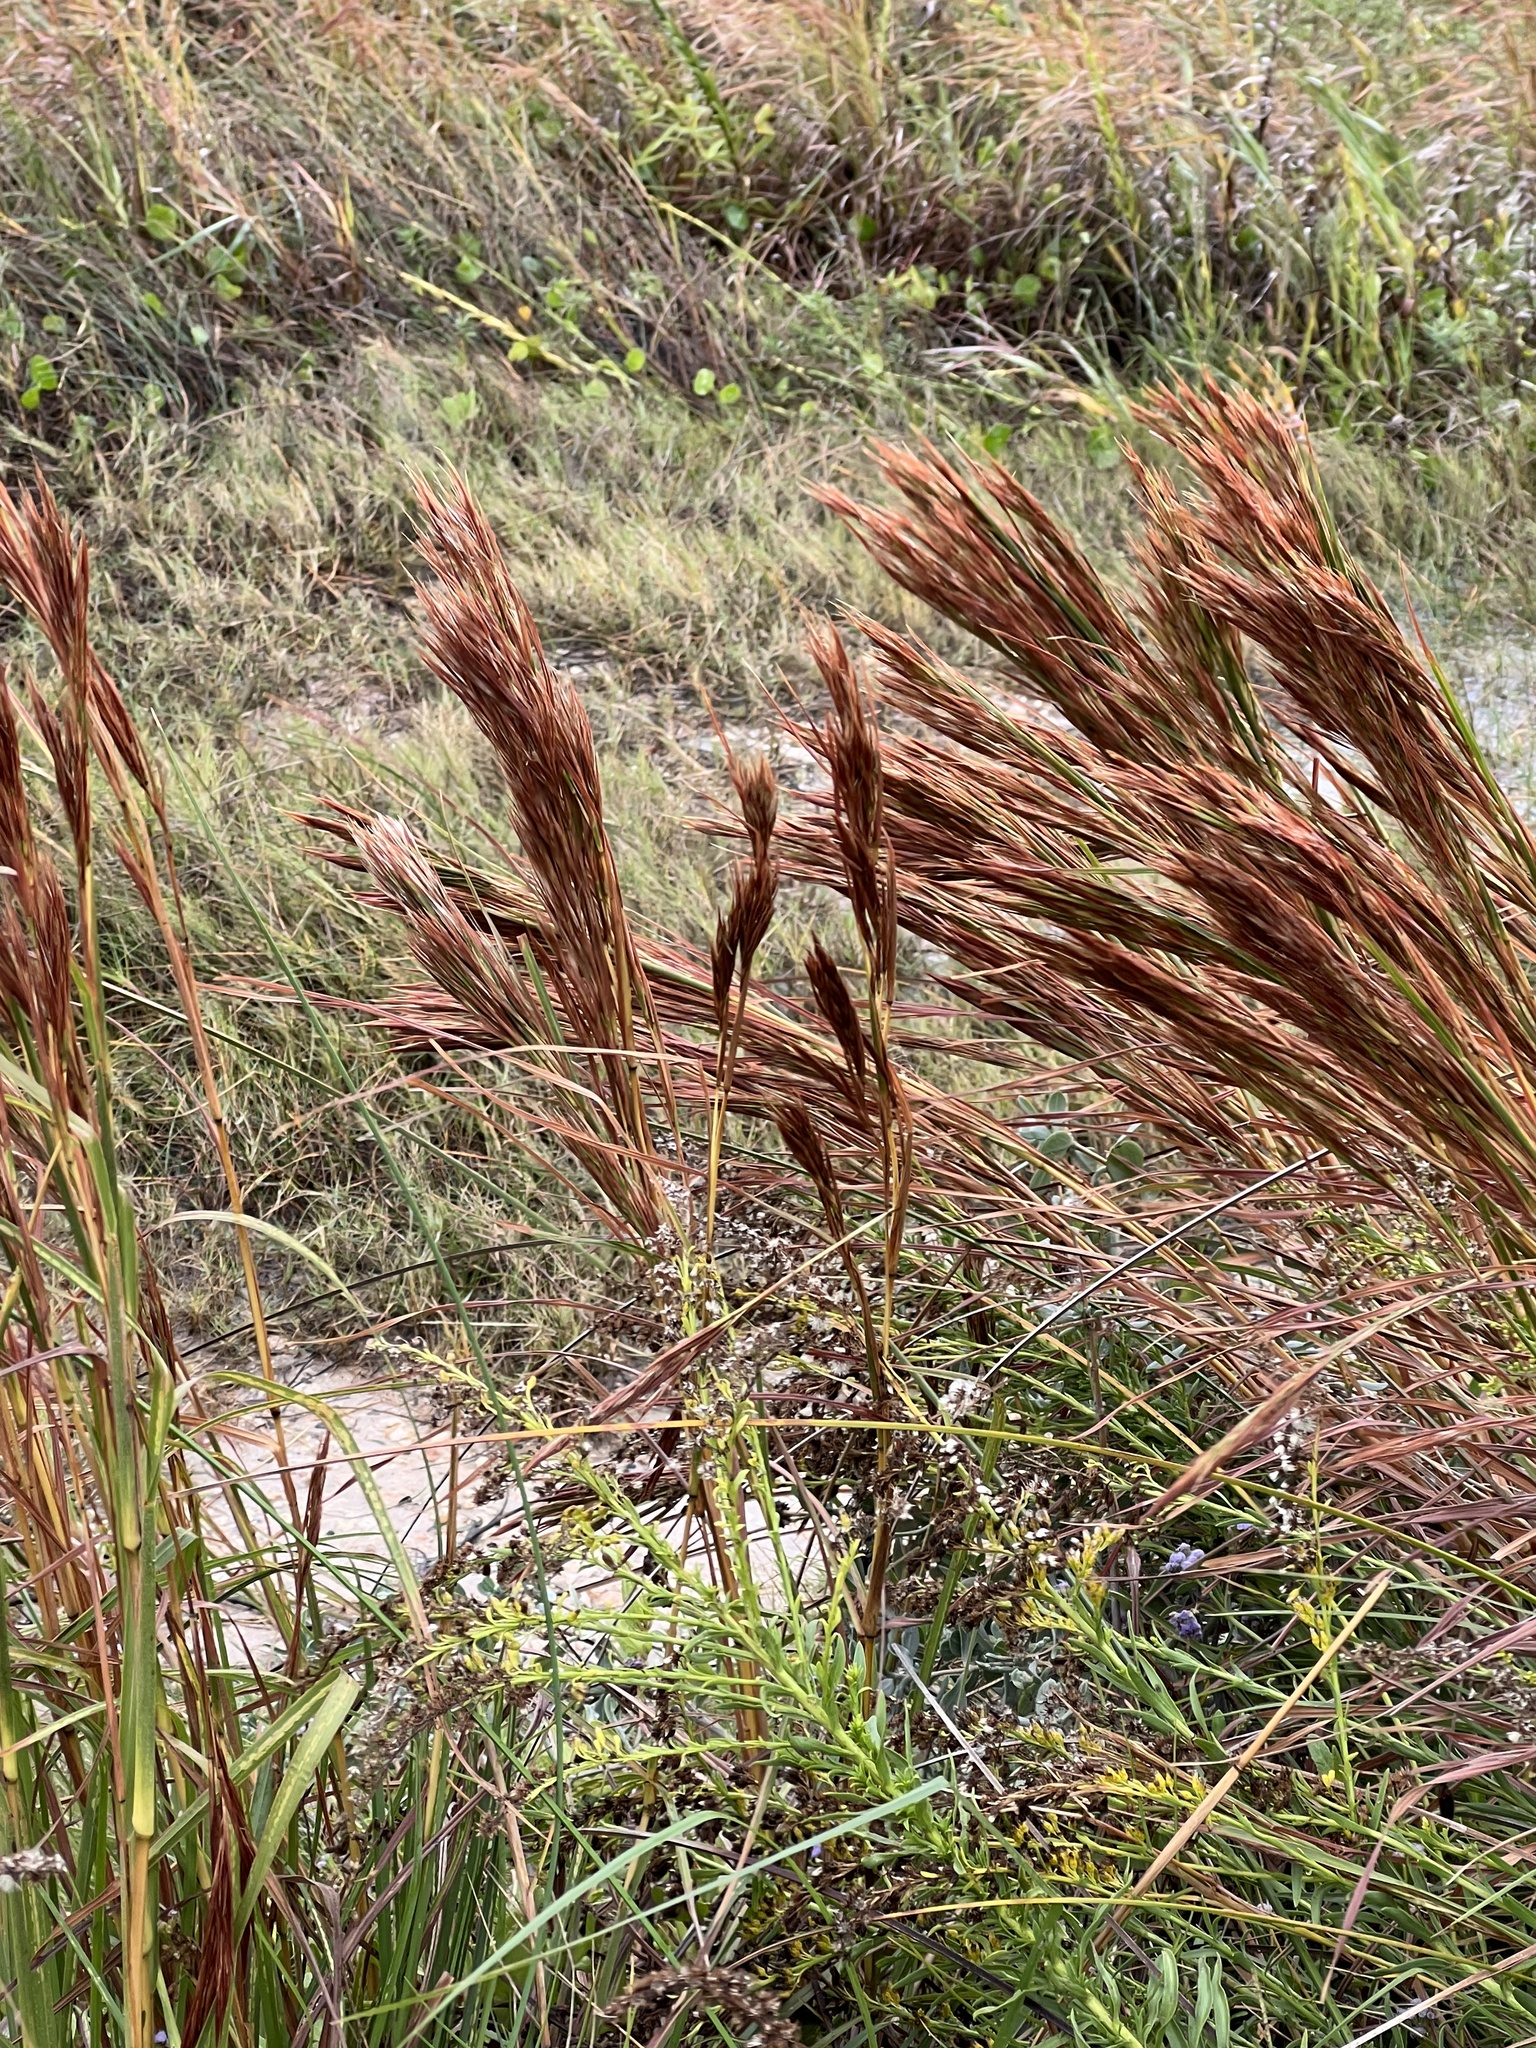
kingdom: Plantae
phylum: Tracheophyta
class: Liliopsida
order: Poales
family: Poaceae
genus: Andropogon
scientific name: Andropogon tenuispatheus
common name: Bushy bluestem
